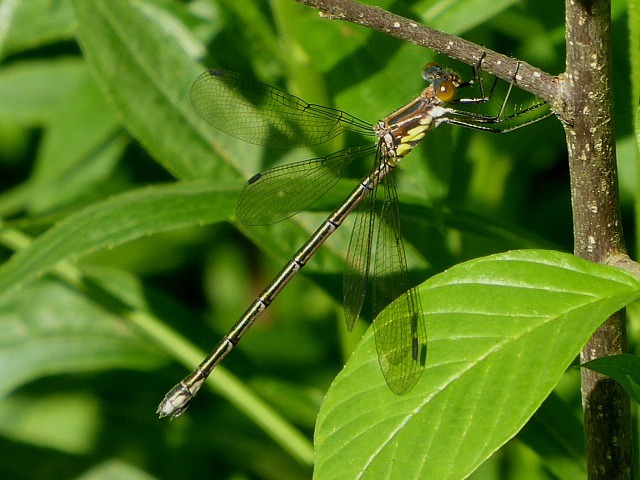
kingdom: Animalia
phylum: Arthropoda
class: Insecta
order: Odonata
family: Lestidae
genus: Lestes
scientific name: Lestes eurinus
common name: Amber-winged spreadwing
